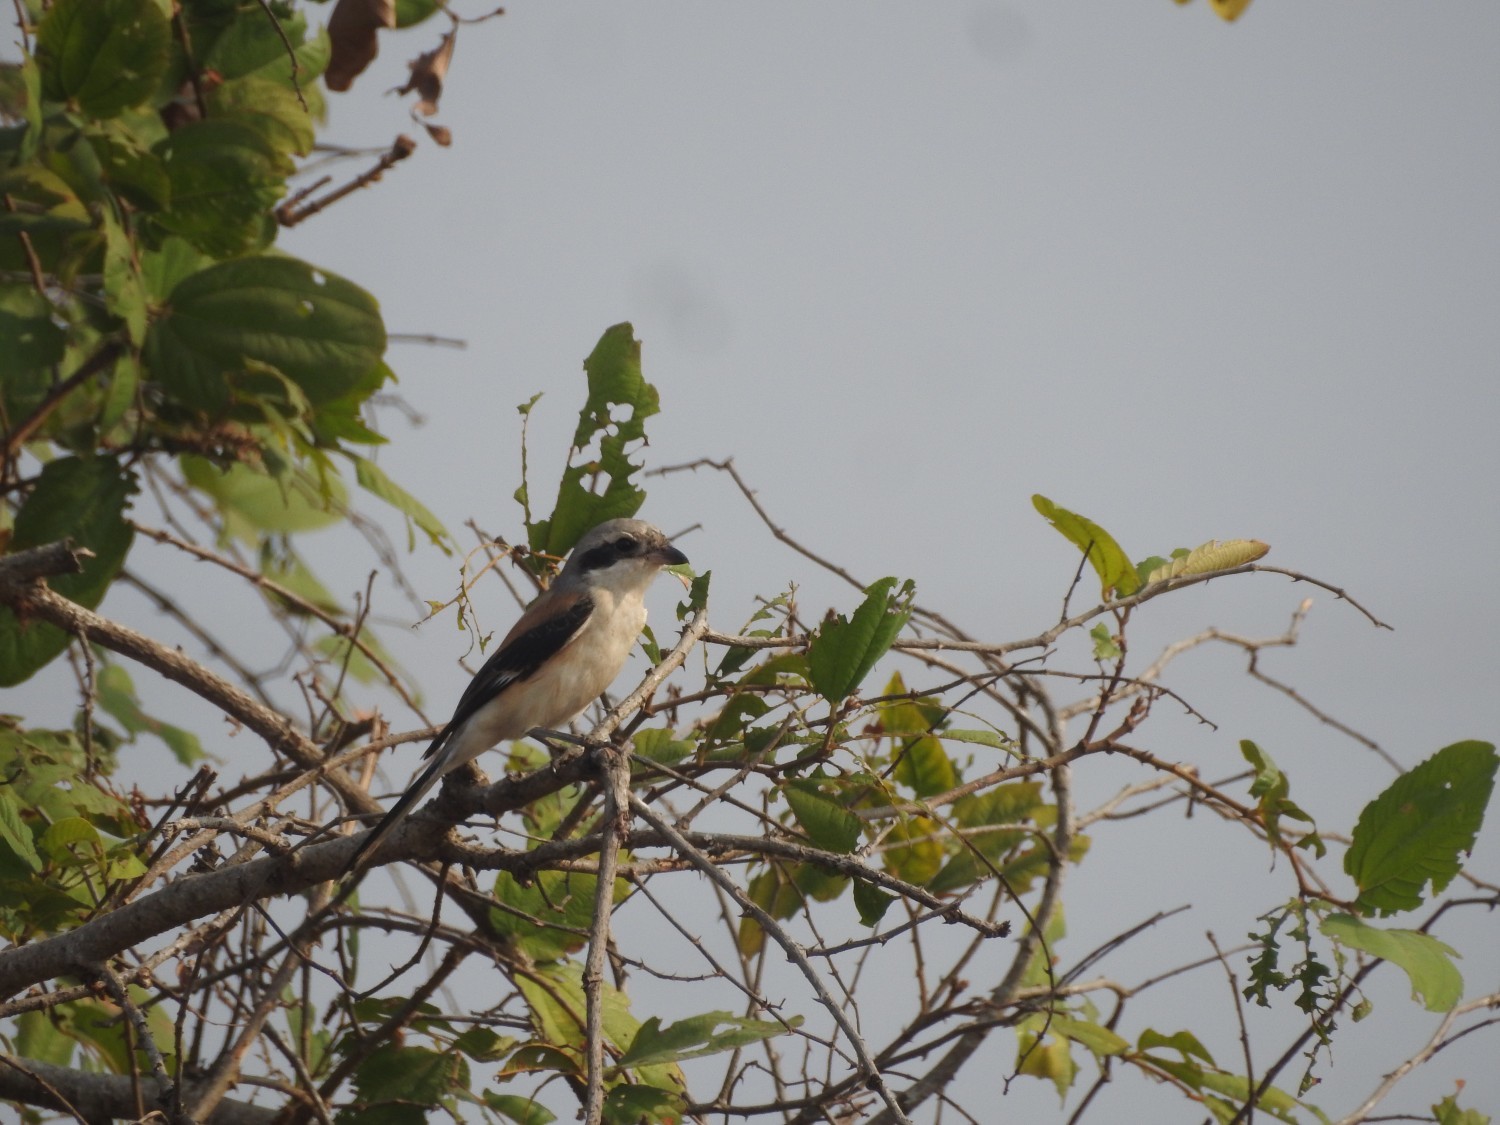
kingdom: Animalia
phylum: Chordata
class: Aves
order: Passeriformes
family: Laniidae
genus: Lanius
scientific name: Lanius schach
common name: Long-tailed shrike
